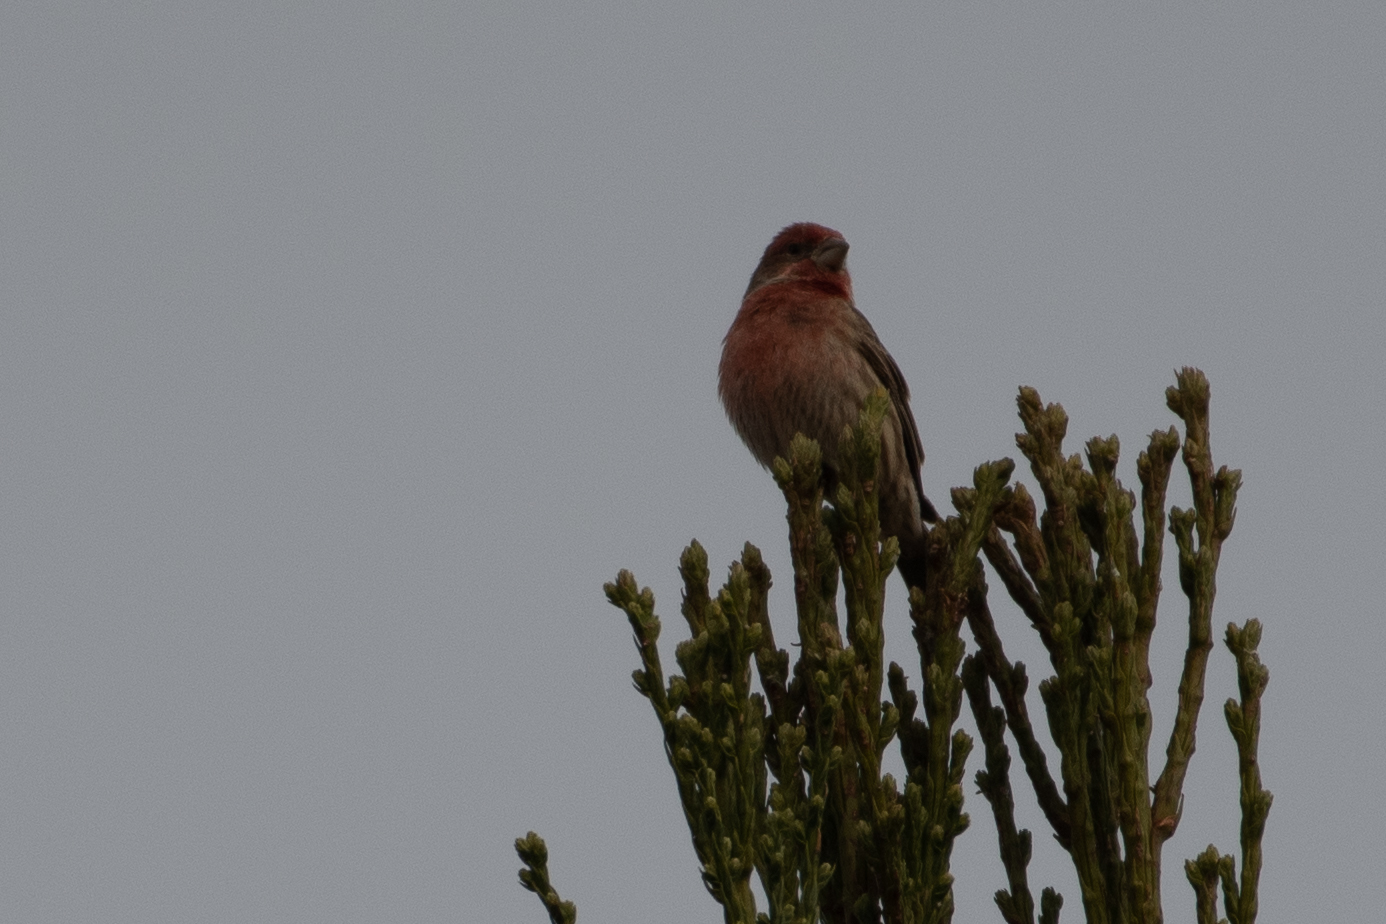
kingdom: Animalia
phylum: Chordata
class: Aves
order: Passeriformes
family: Fringillidae
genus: Haemorhous
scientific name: Haemorhous mexicanus
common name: House finch
